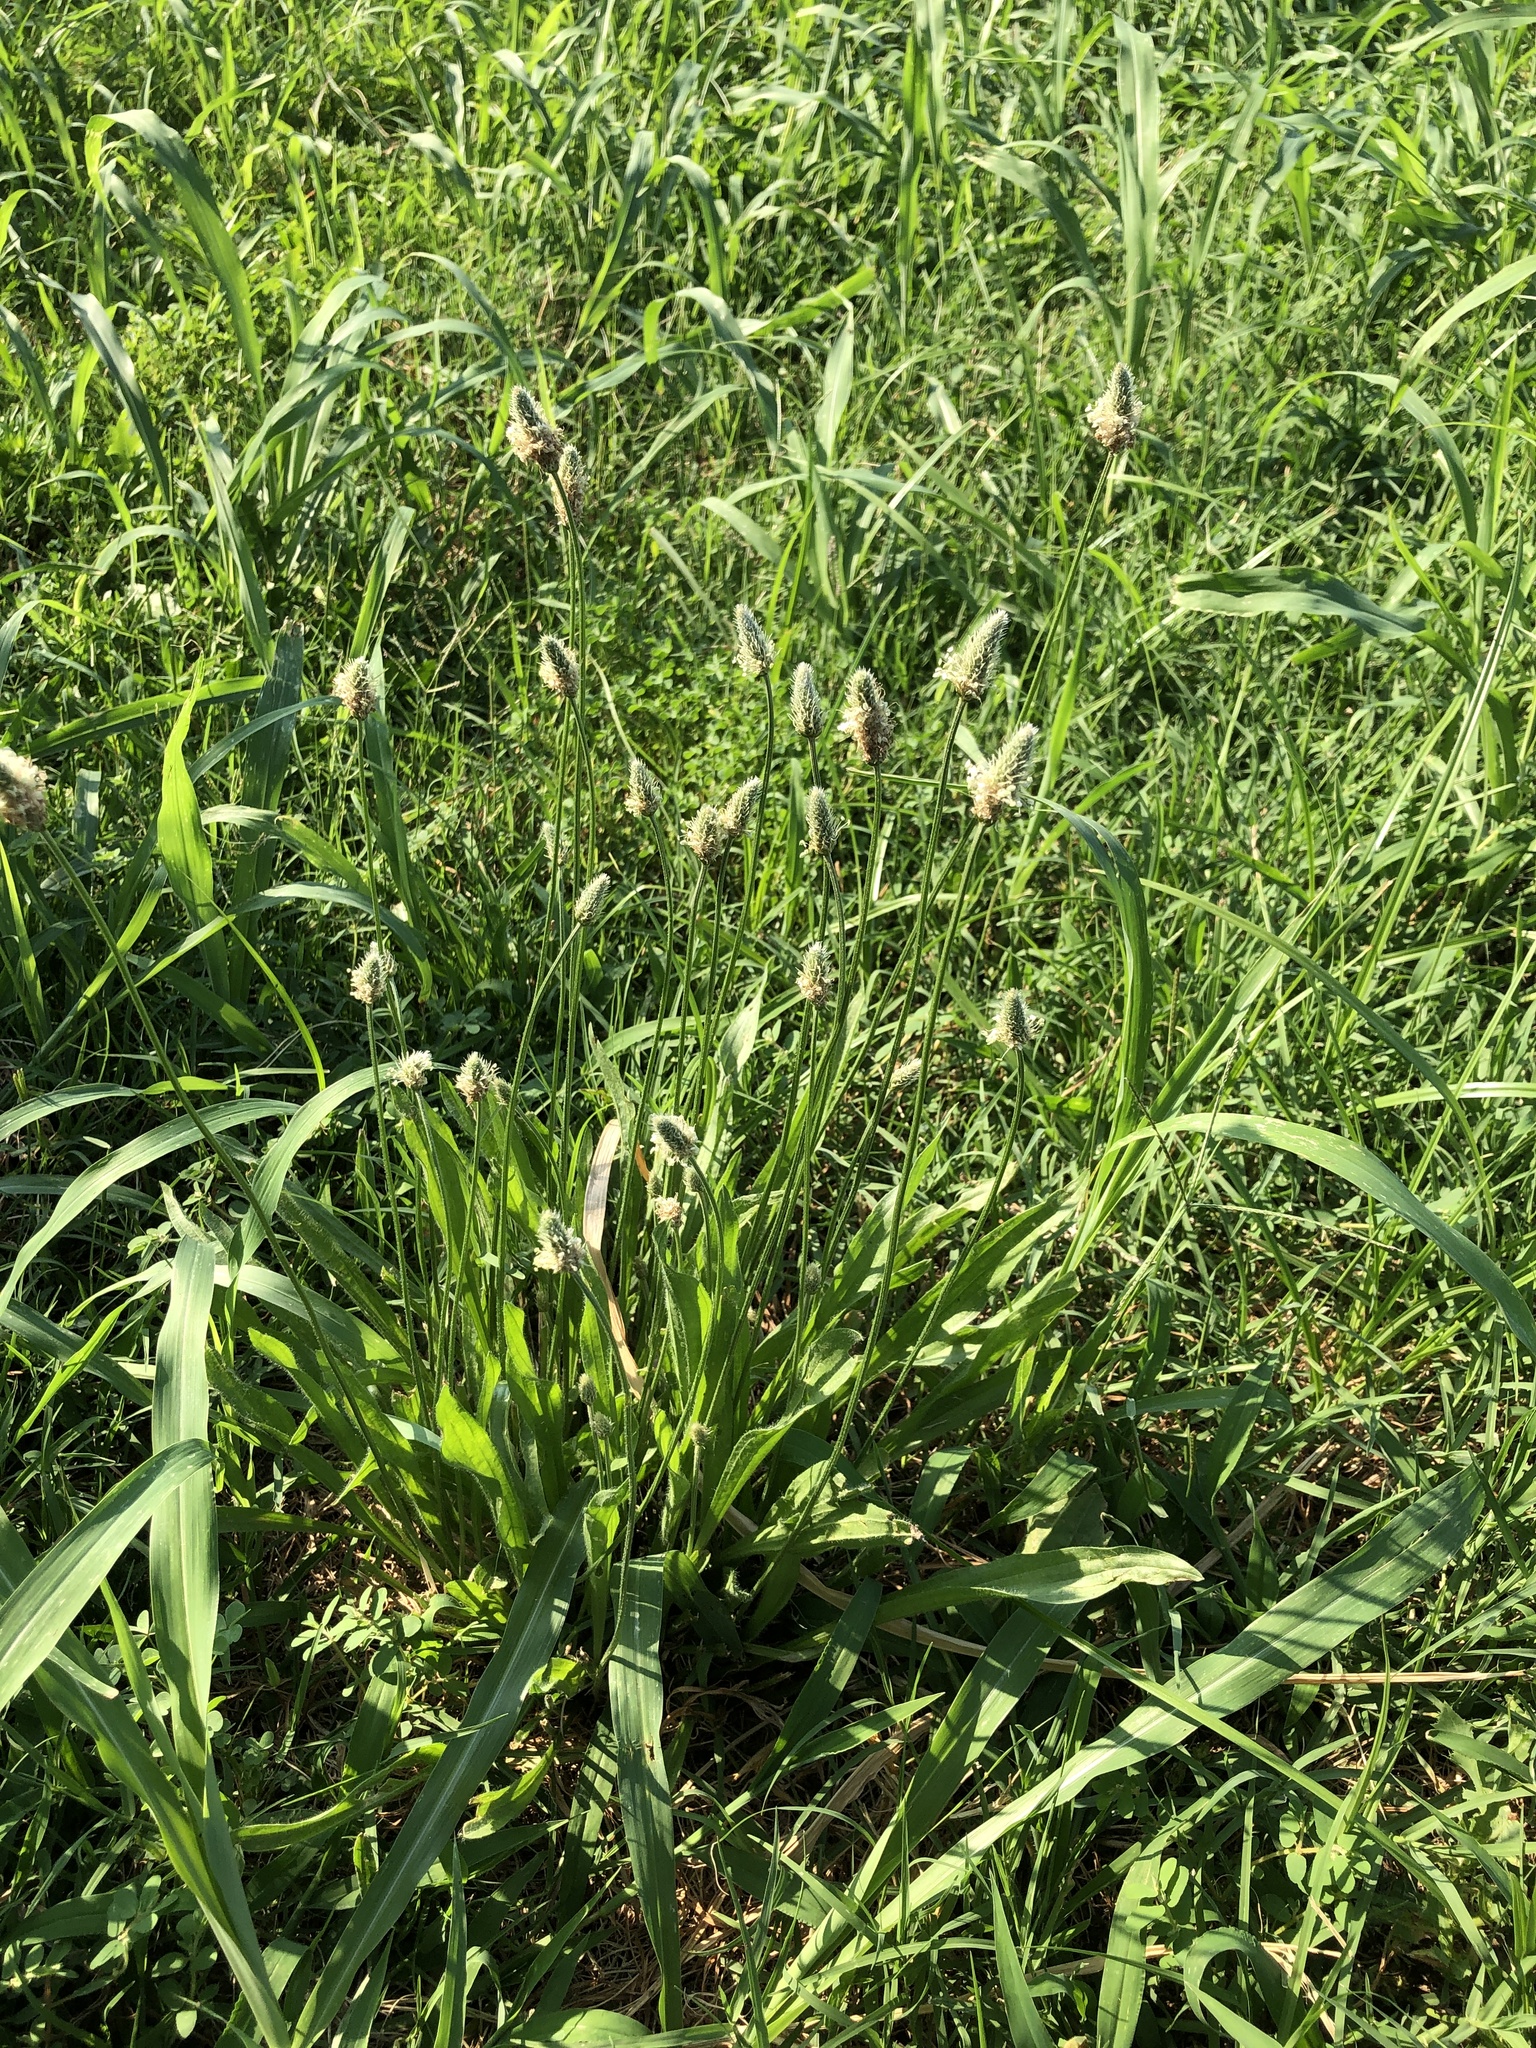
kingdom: Plantae
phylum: Tracheophyta
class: Magnoliopsida
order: Lamiales
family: Plantaginaceae
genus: Plantago
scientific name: Plantago lanceolata
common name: Ribwort plantain
